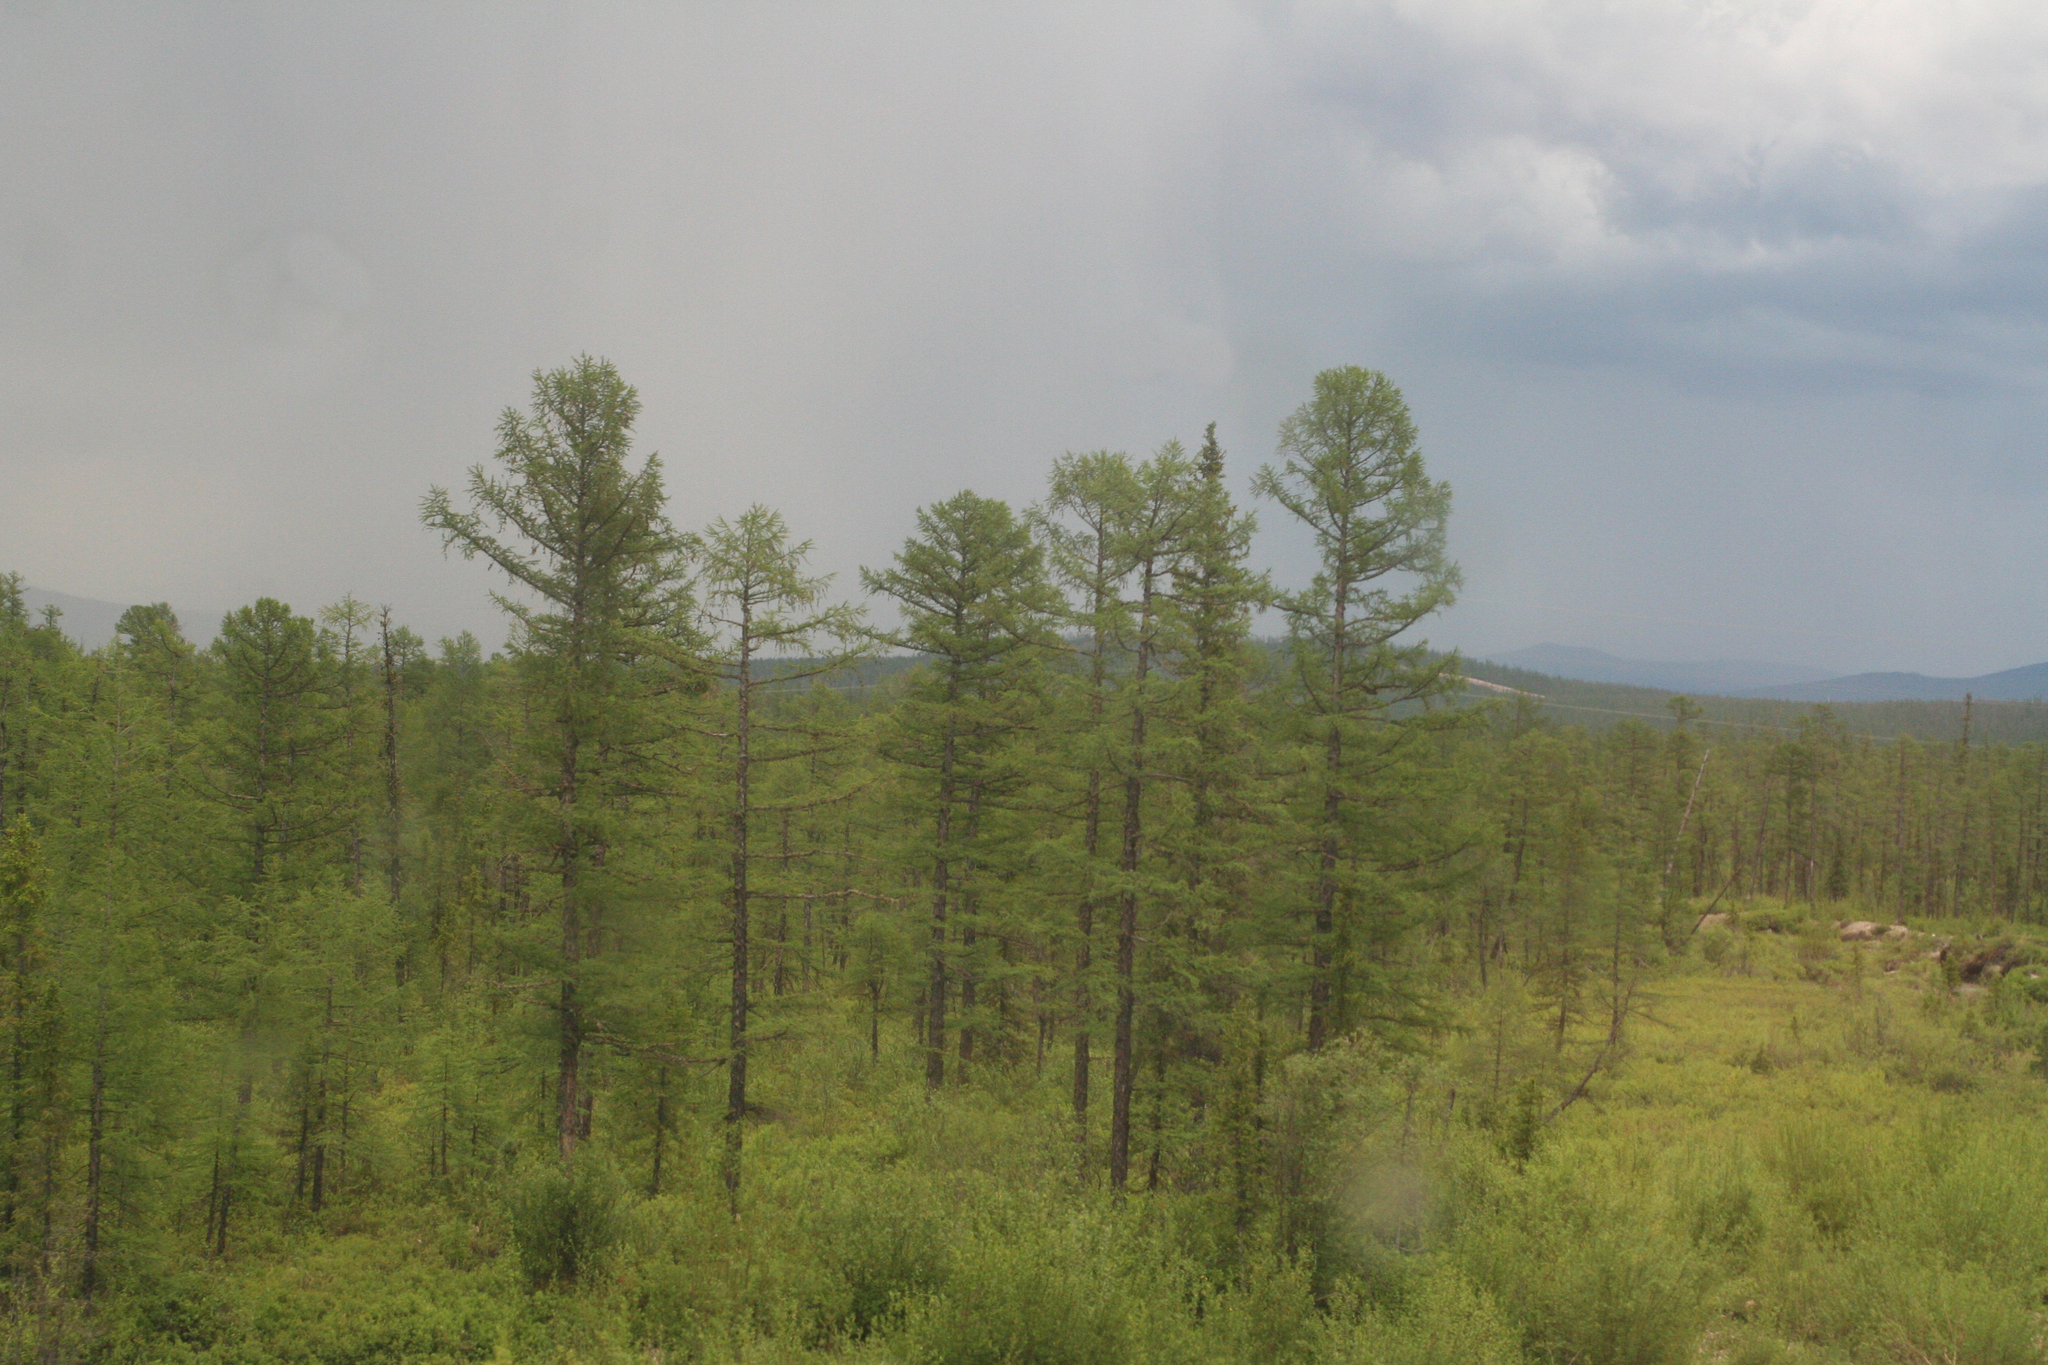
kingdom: Plantae
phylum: Tracheophyta
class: Pinopsida
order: Pinales
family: Pinaceae
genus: Larix
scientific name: Larix gmelinii
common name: Dahurian larch
